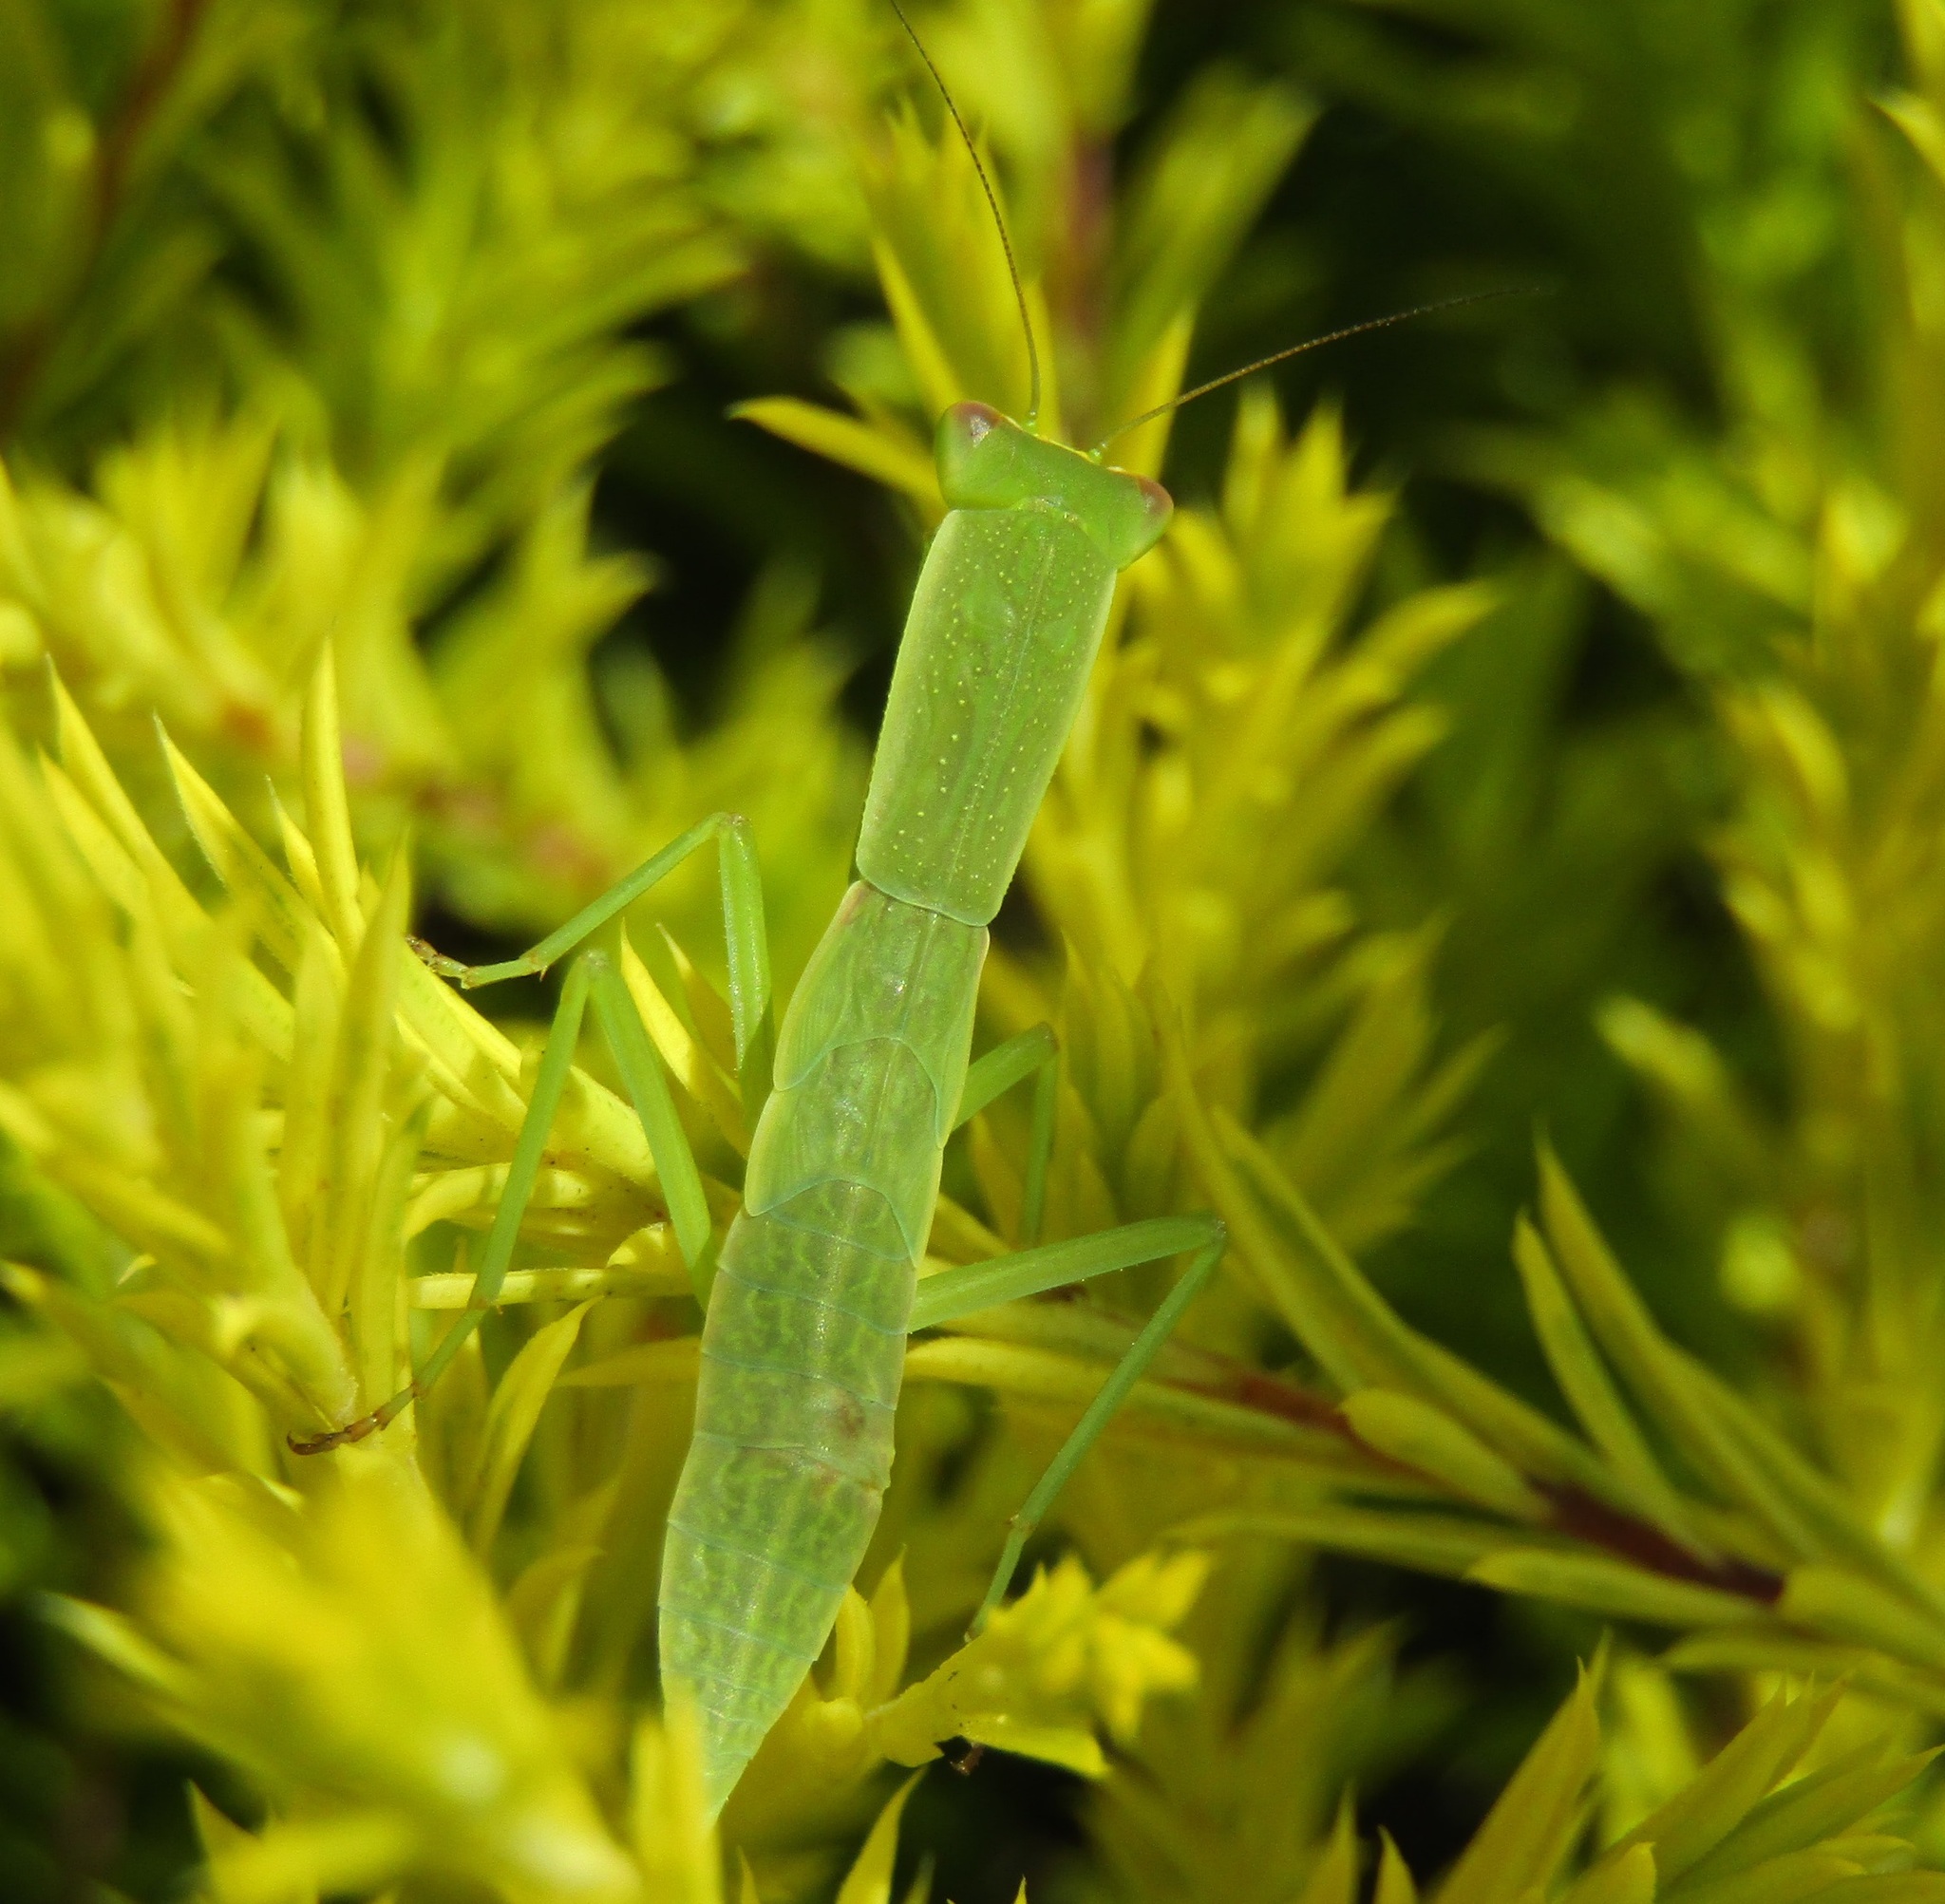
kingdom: Animalia
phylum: Arthropoda
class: Insecta
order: Mantodea
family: Mantidae
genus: Orthodera
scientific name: Orthodera novaezealandiae
